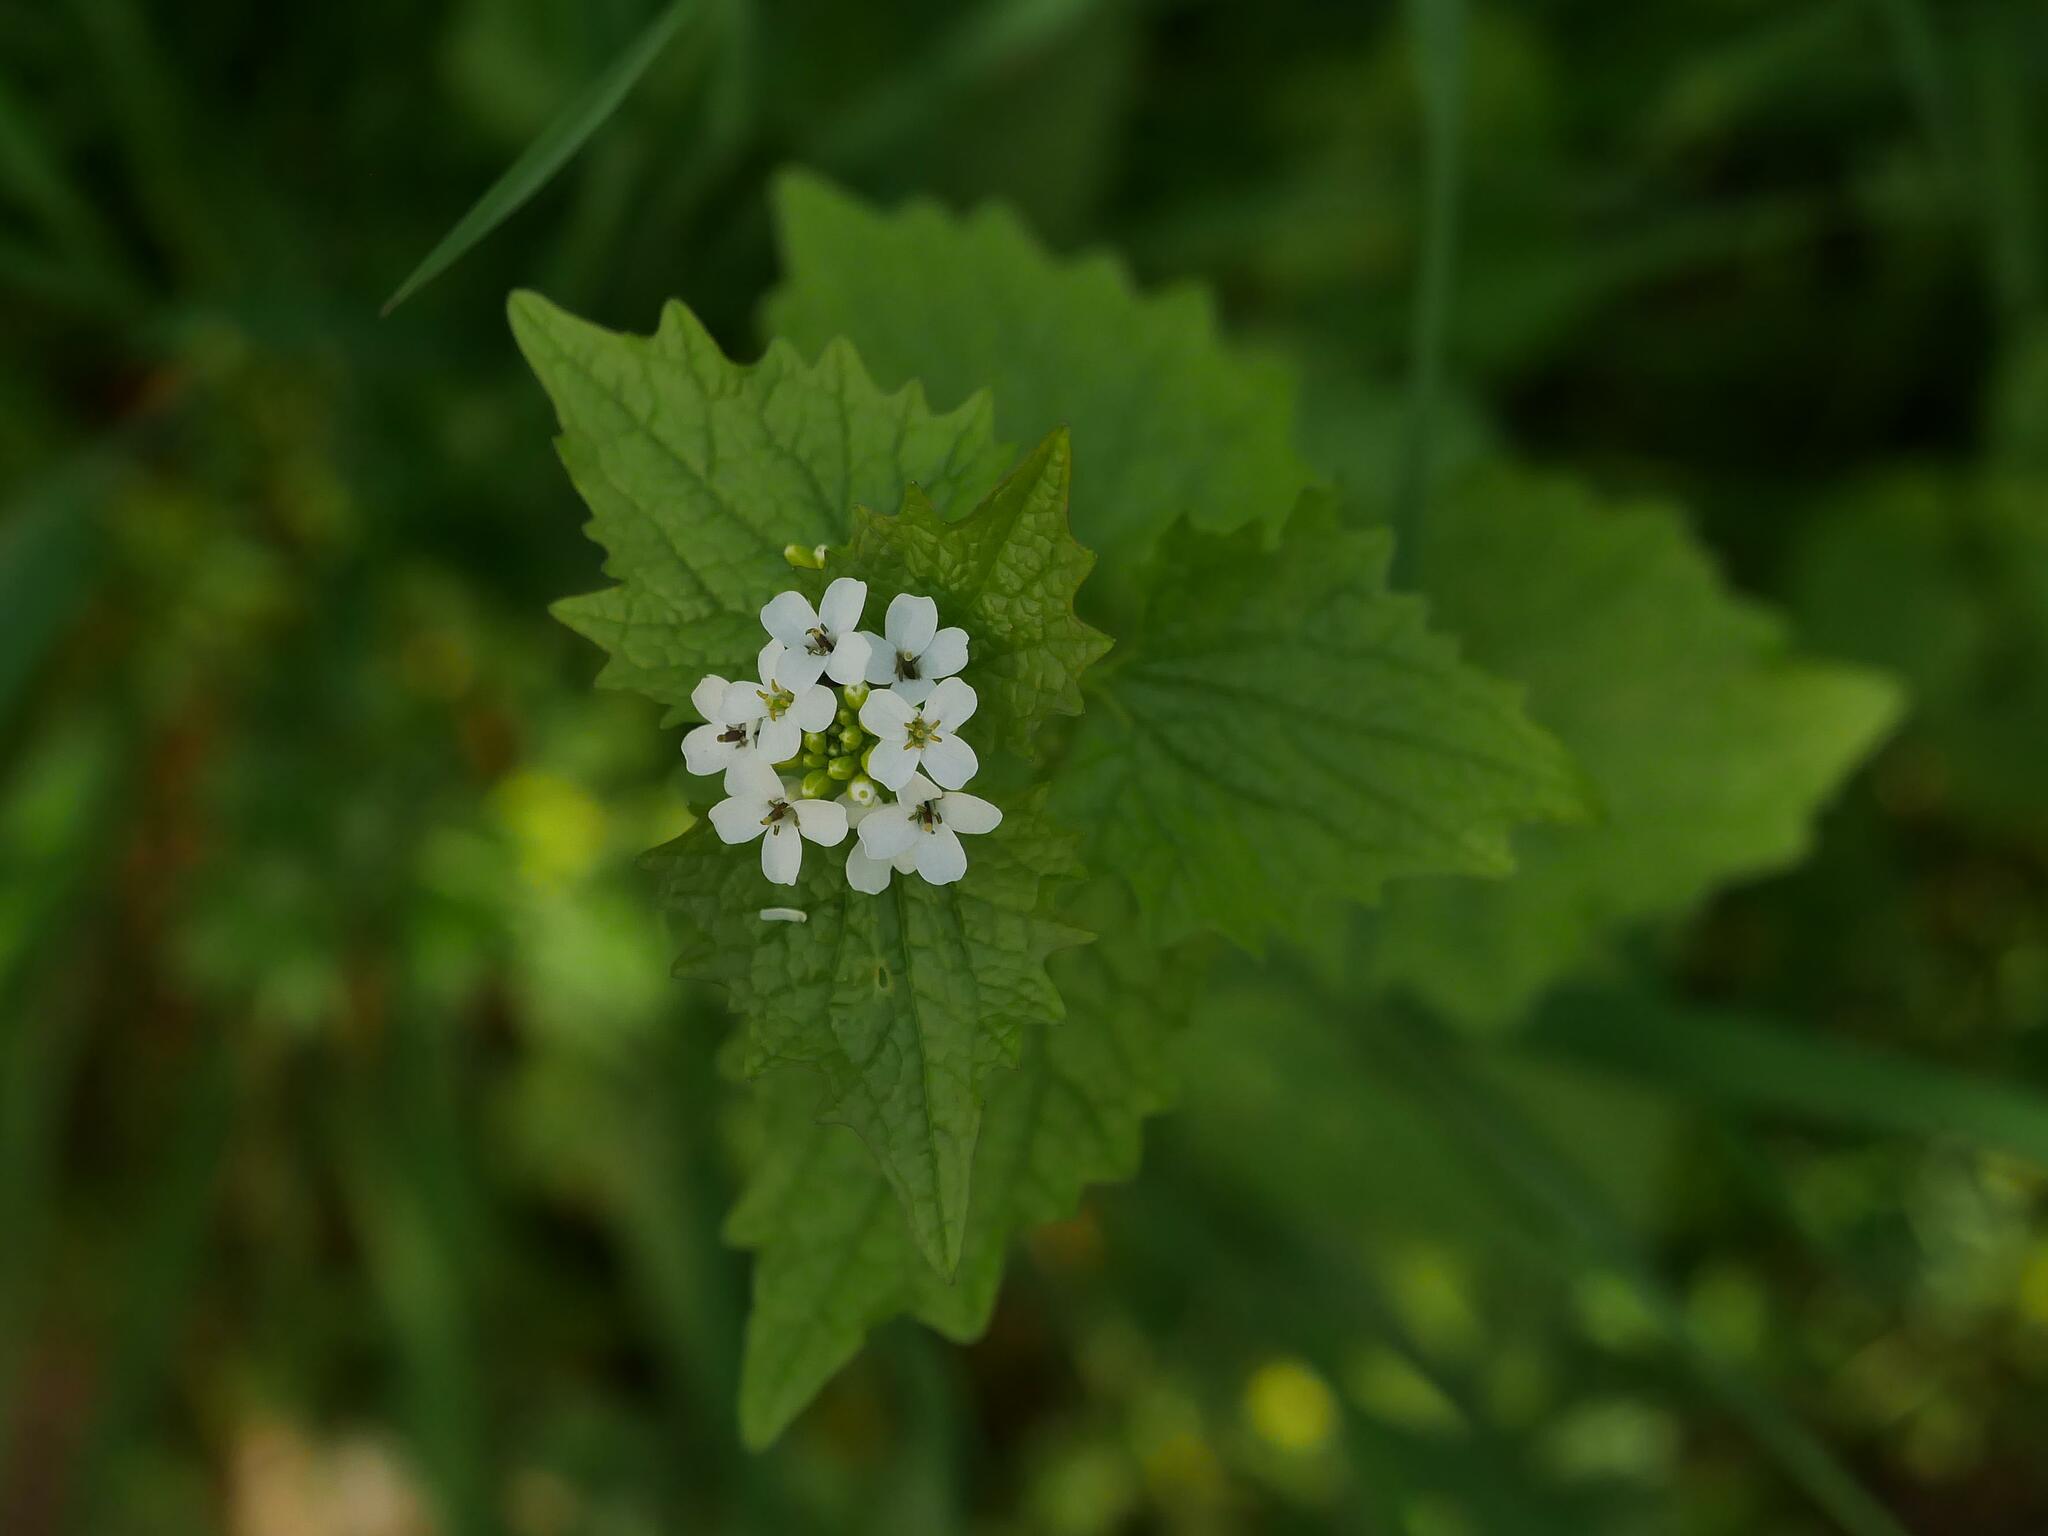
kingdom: Plantae
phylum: Tracheophyta
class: Magnoliopsida
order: Brassicales
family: Brassicaceae
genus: Alliaria
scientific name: Alliaria petiolata
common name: Garlic mustard
